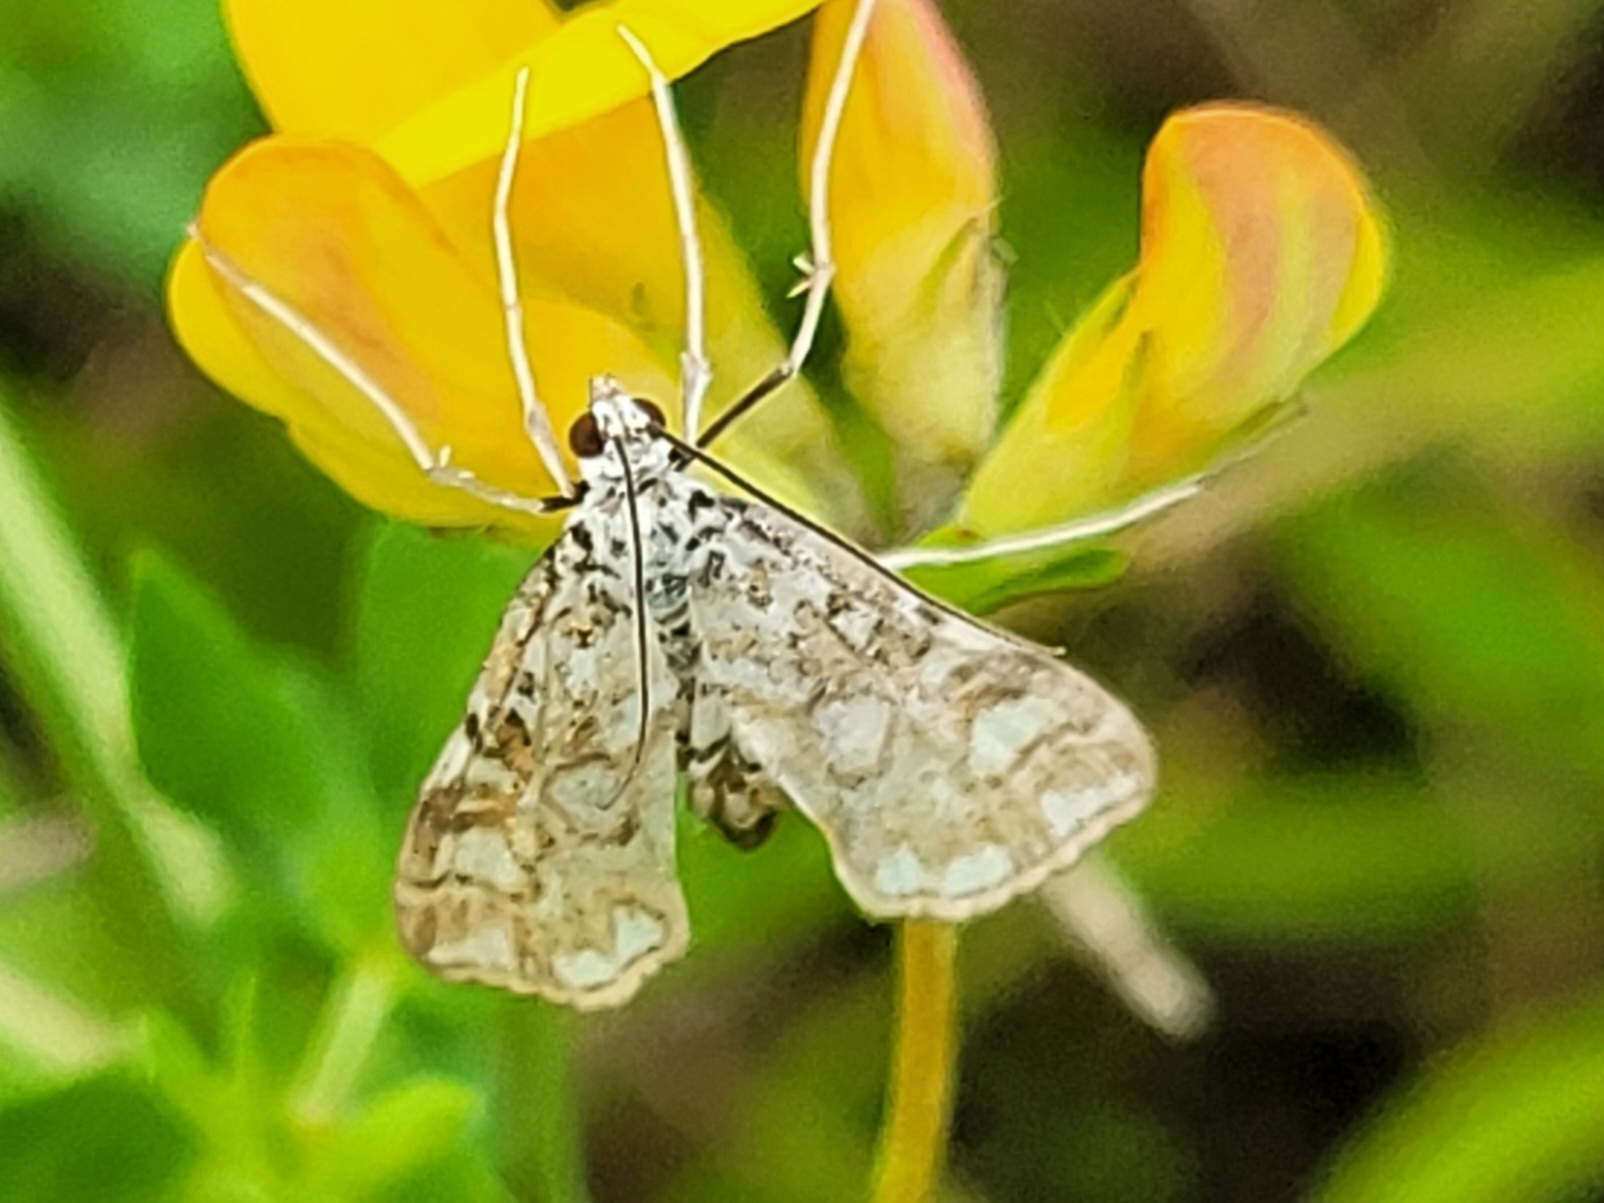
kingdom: Animalia
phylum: Arthropoda
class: Insecta
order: Lepidoptera
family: Crambidae
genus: Elophila
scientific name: Elophila nymphaeata
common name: Brown china-mark
